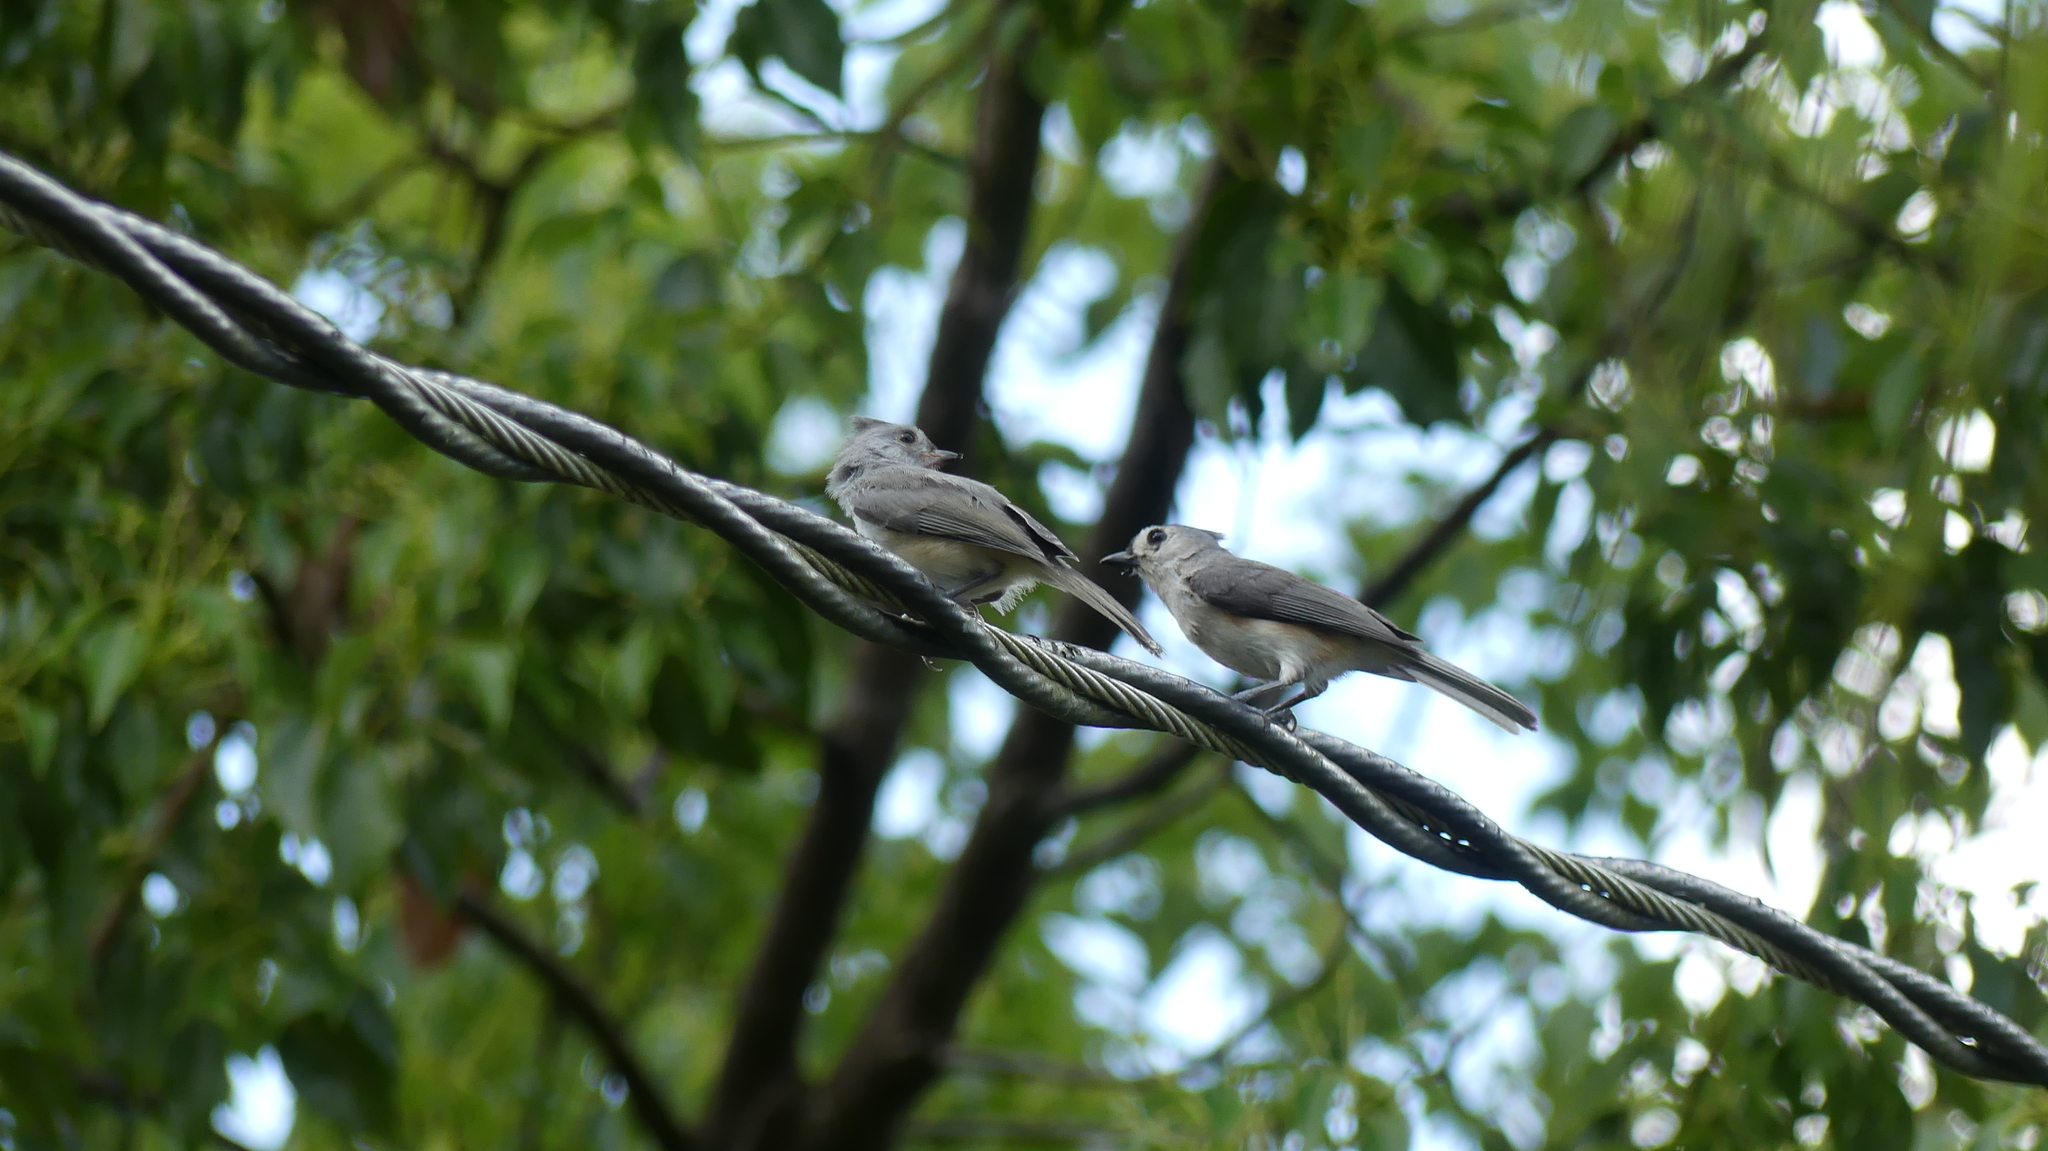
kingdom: Animalia
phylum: Chordata
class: Aves
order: Passeriformes
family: Paridae
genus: Baeolophus
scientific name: Baeolophus bicolor
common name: Tufted titmouse
